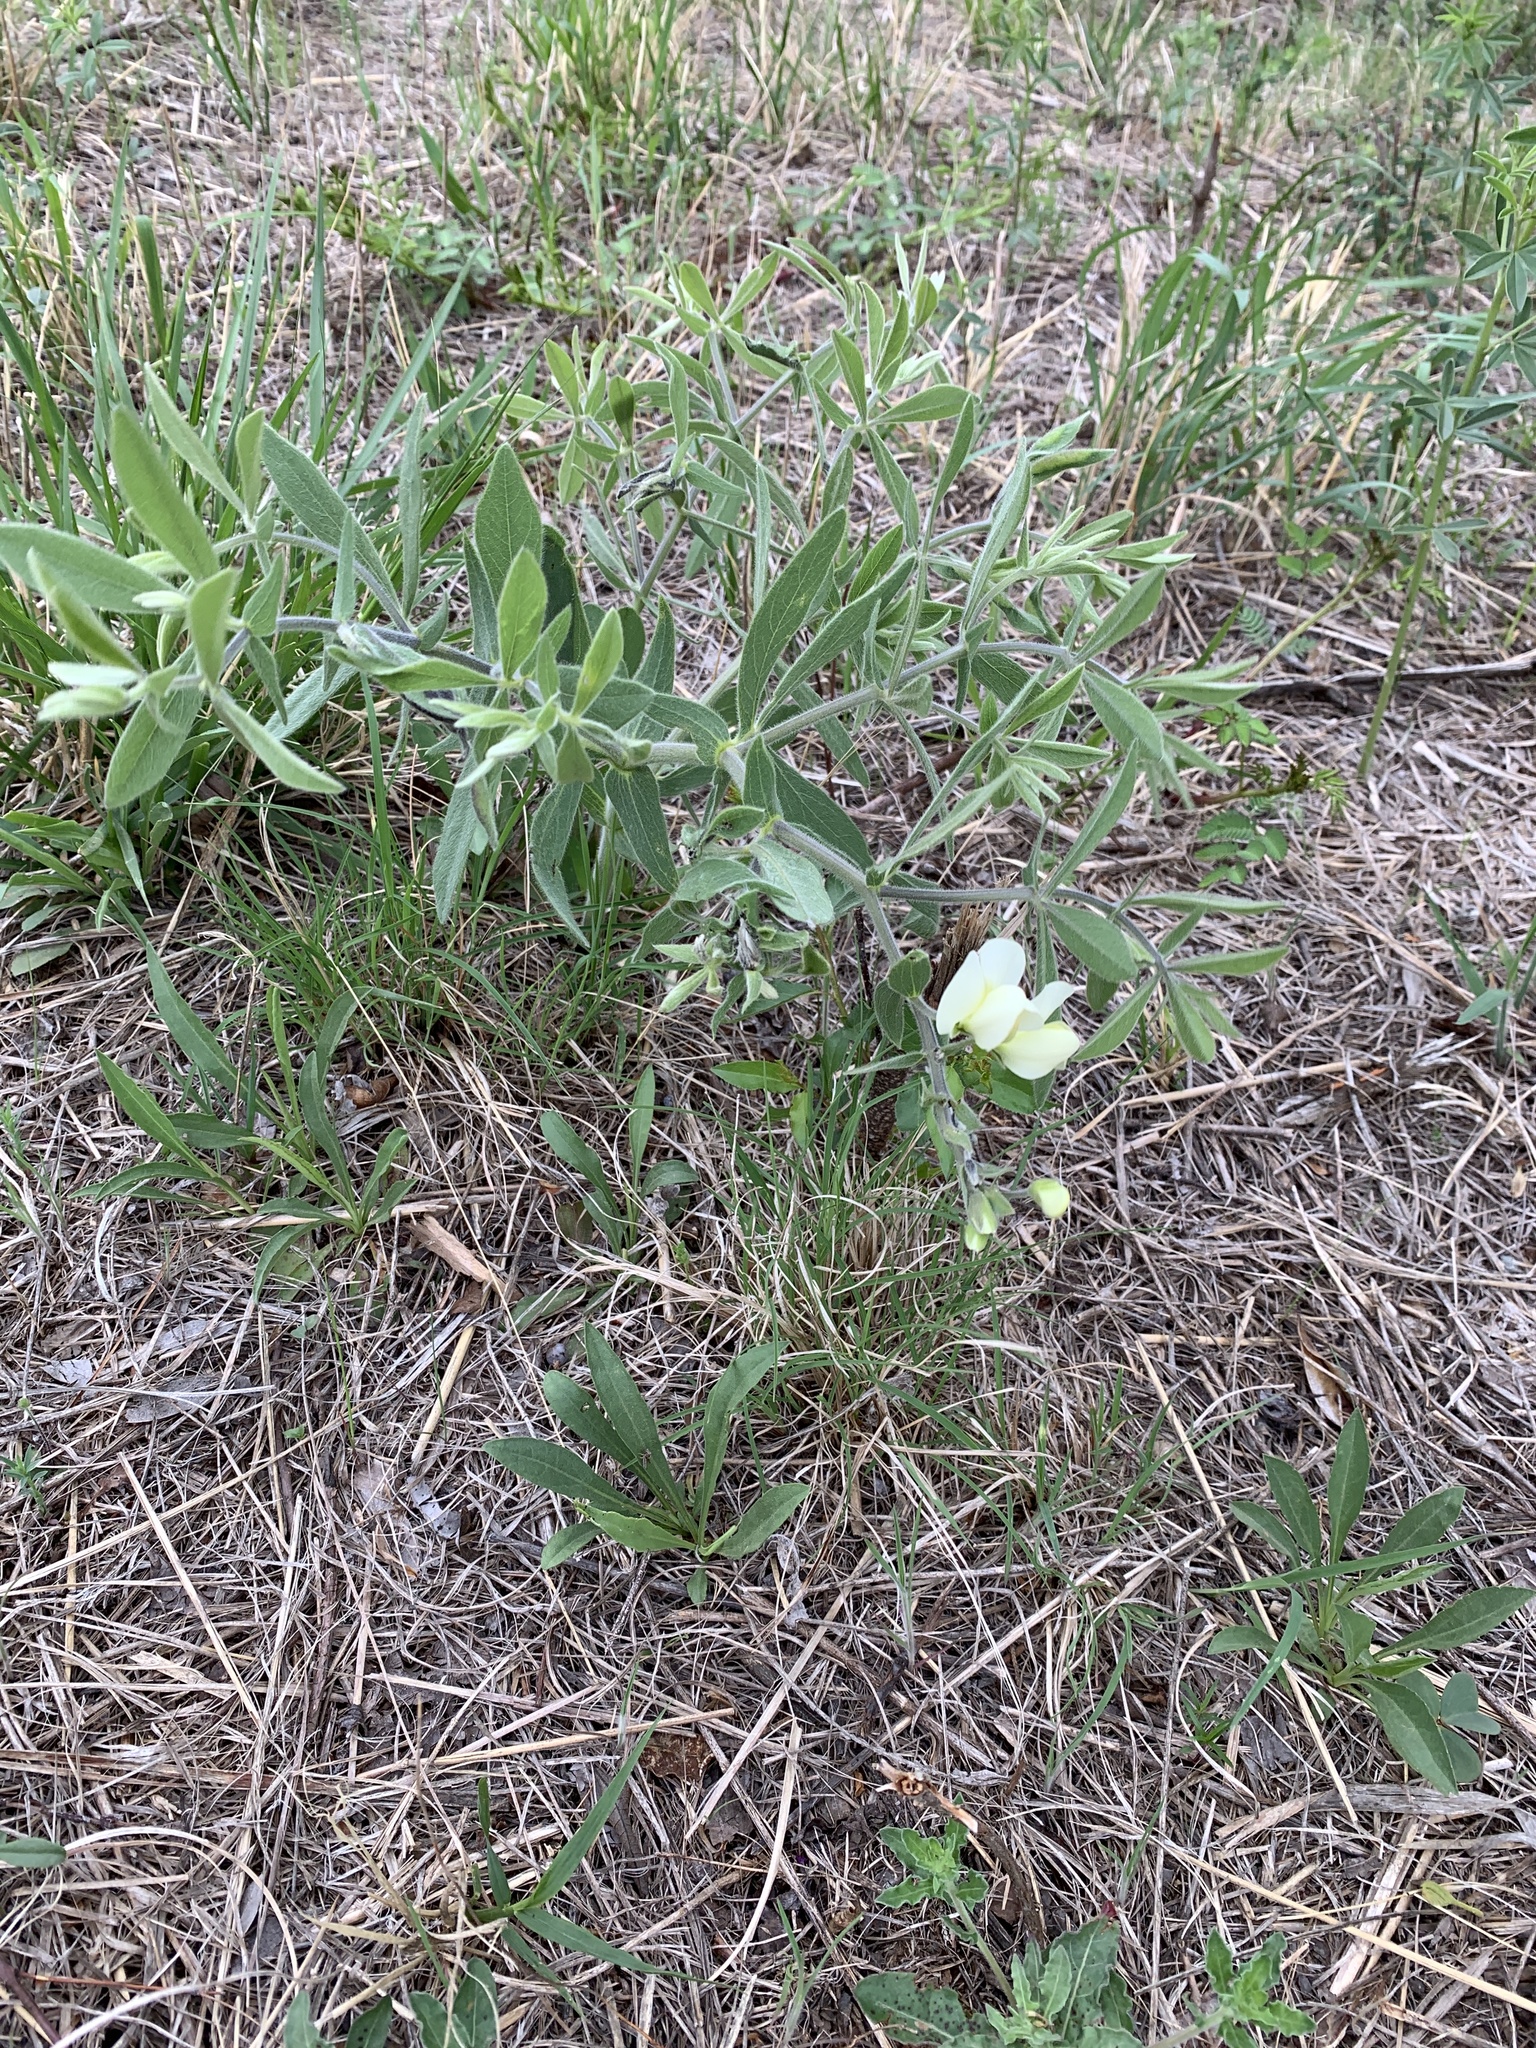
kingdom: Plantae
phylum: Tracheophyta
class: Magnoliopsida
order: Fabales
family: Fabaceae
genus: Baptisia
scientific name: Baptisia bracteata
